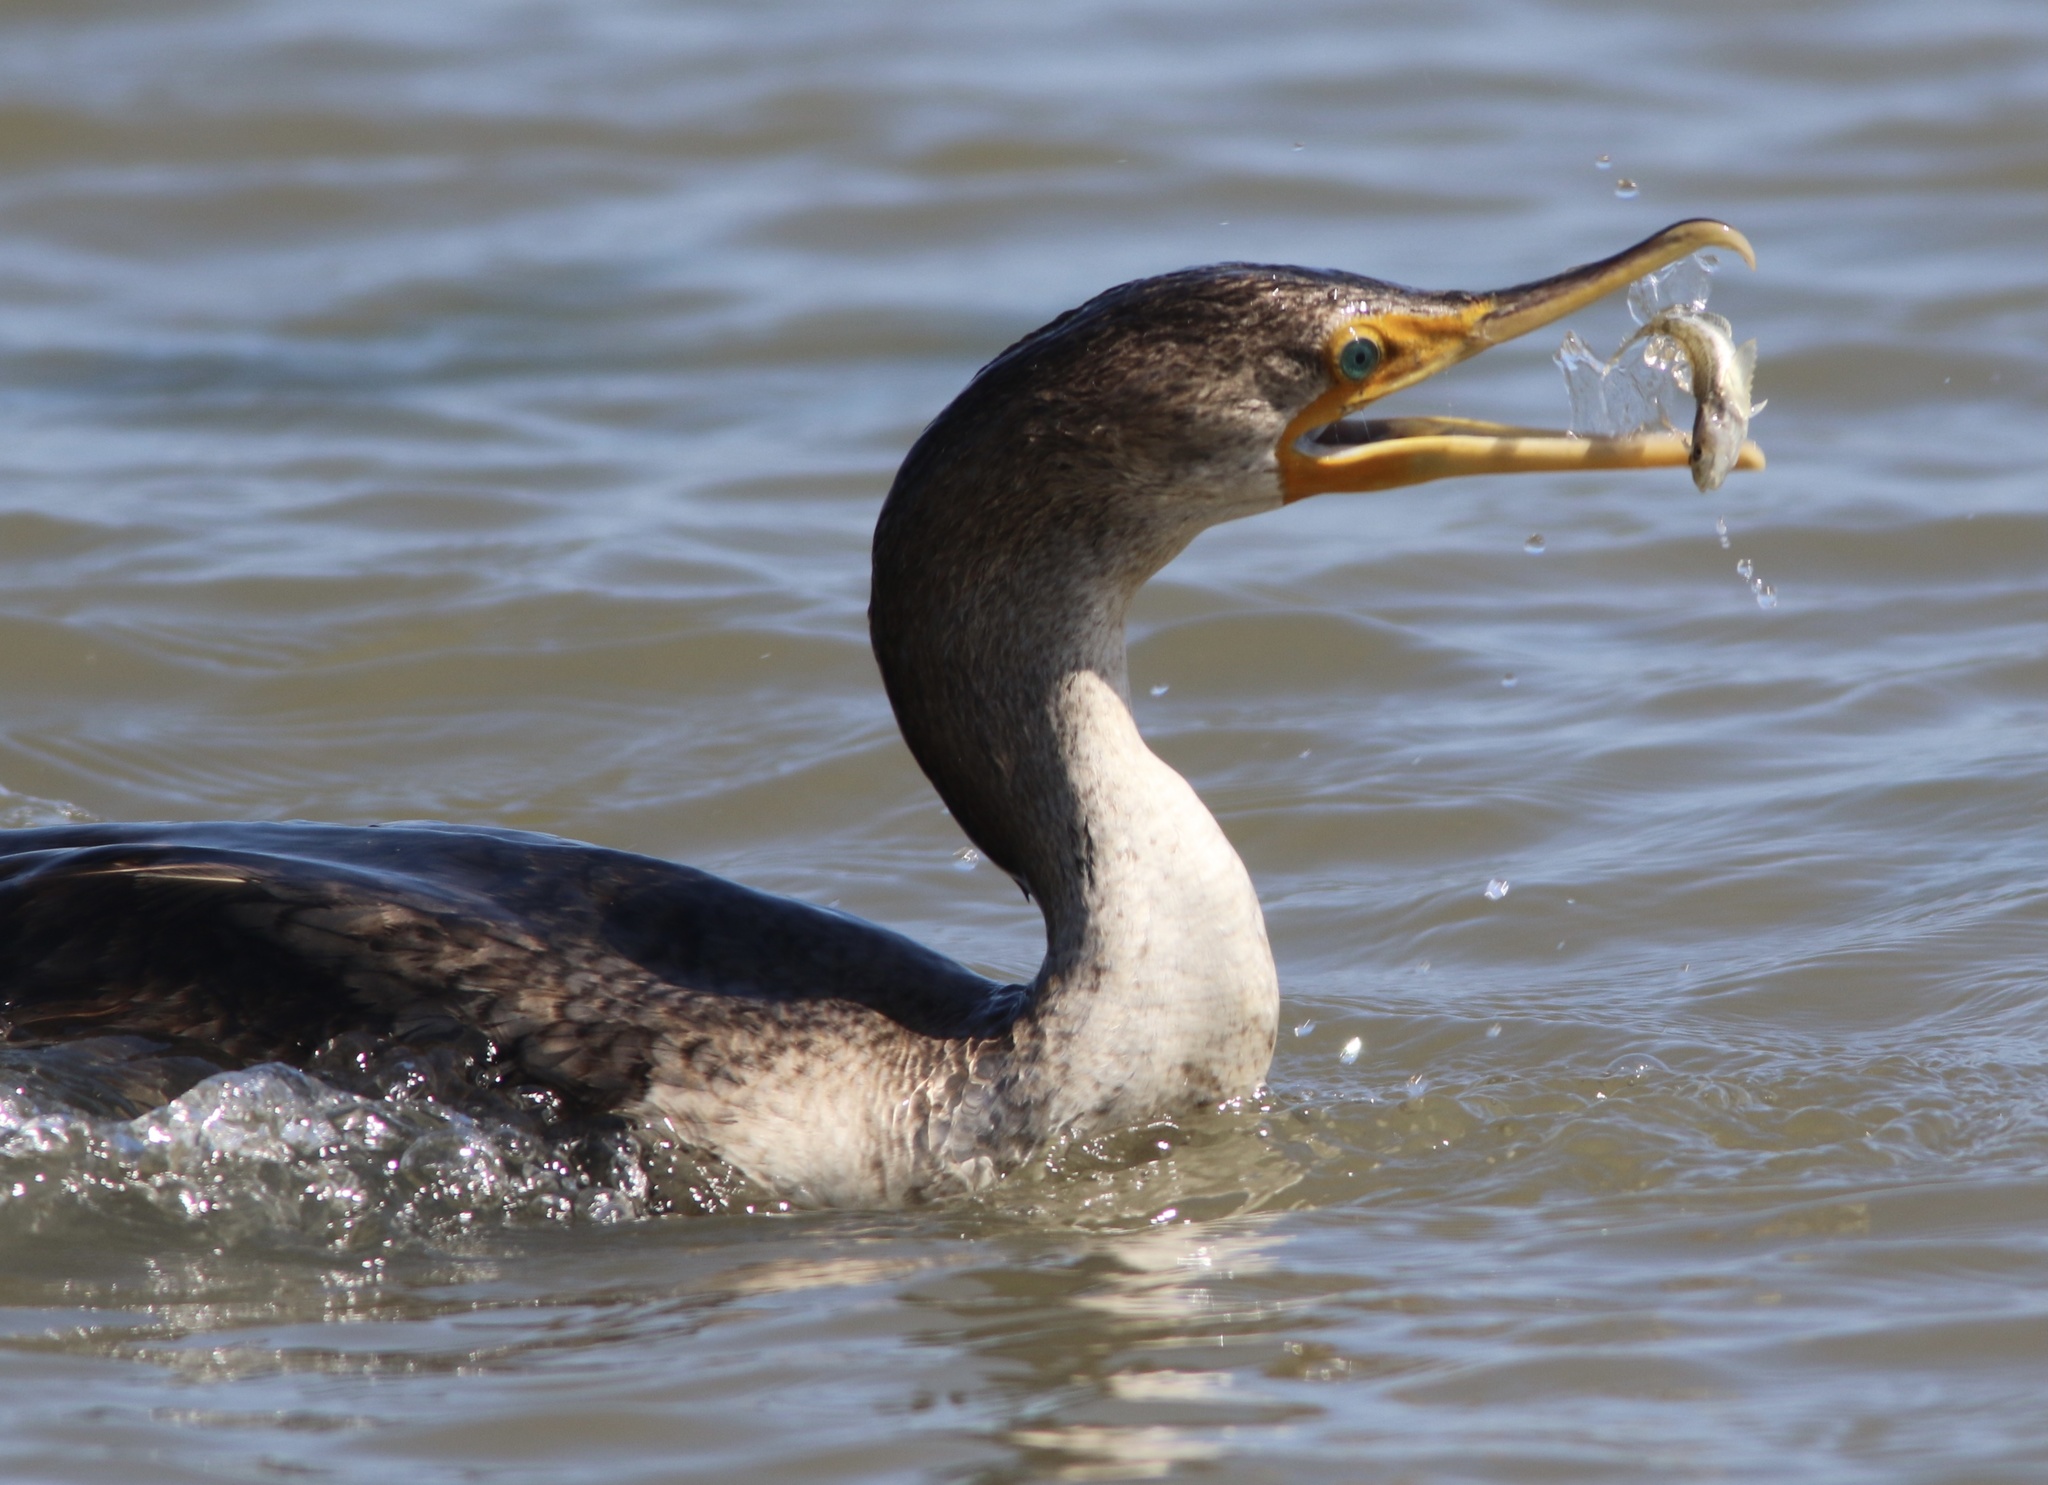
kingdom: Animalia
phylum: Chordata
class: Aves
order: Suliformes
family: Phalacrocoracidae
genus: Phalacrocorax
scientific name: Phalacrocorax auritus
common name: Double-crested cormorant
